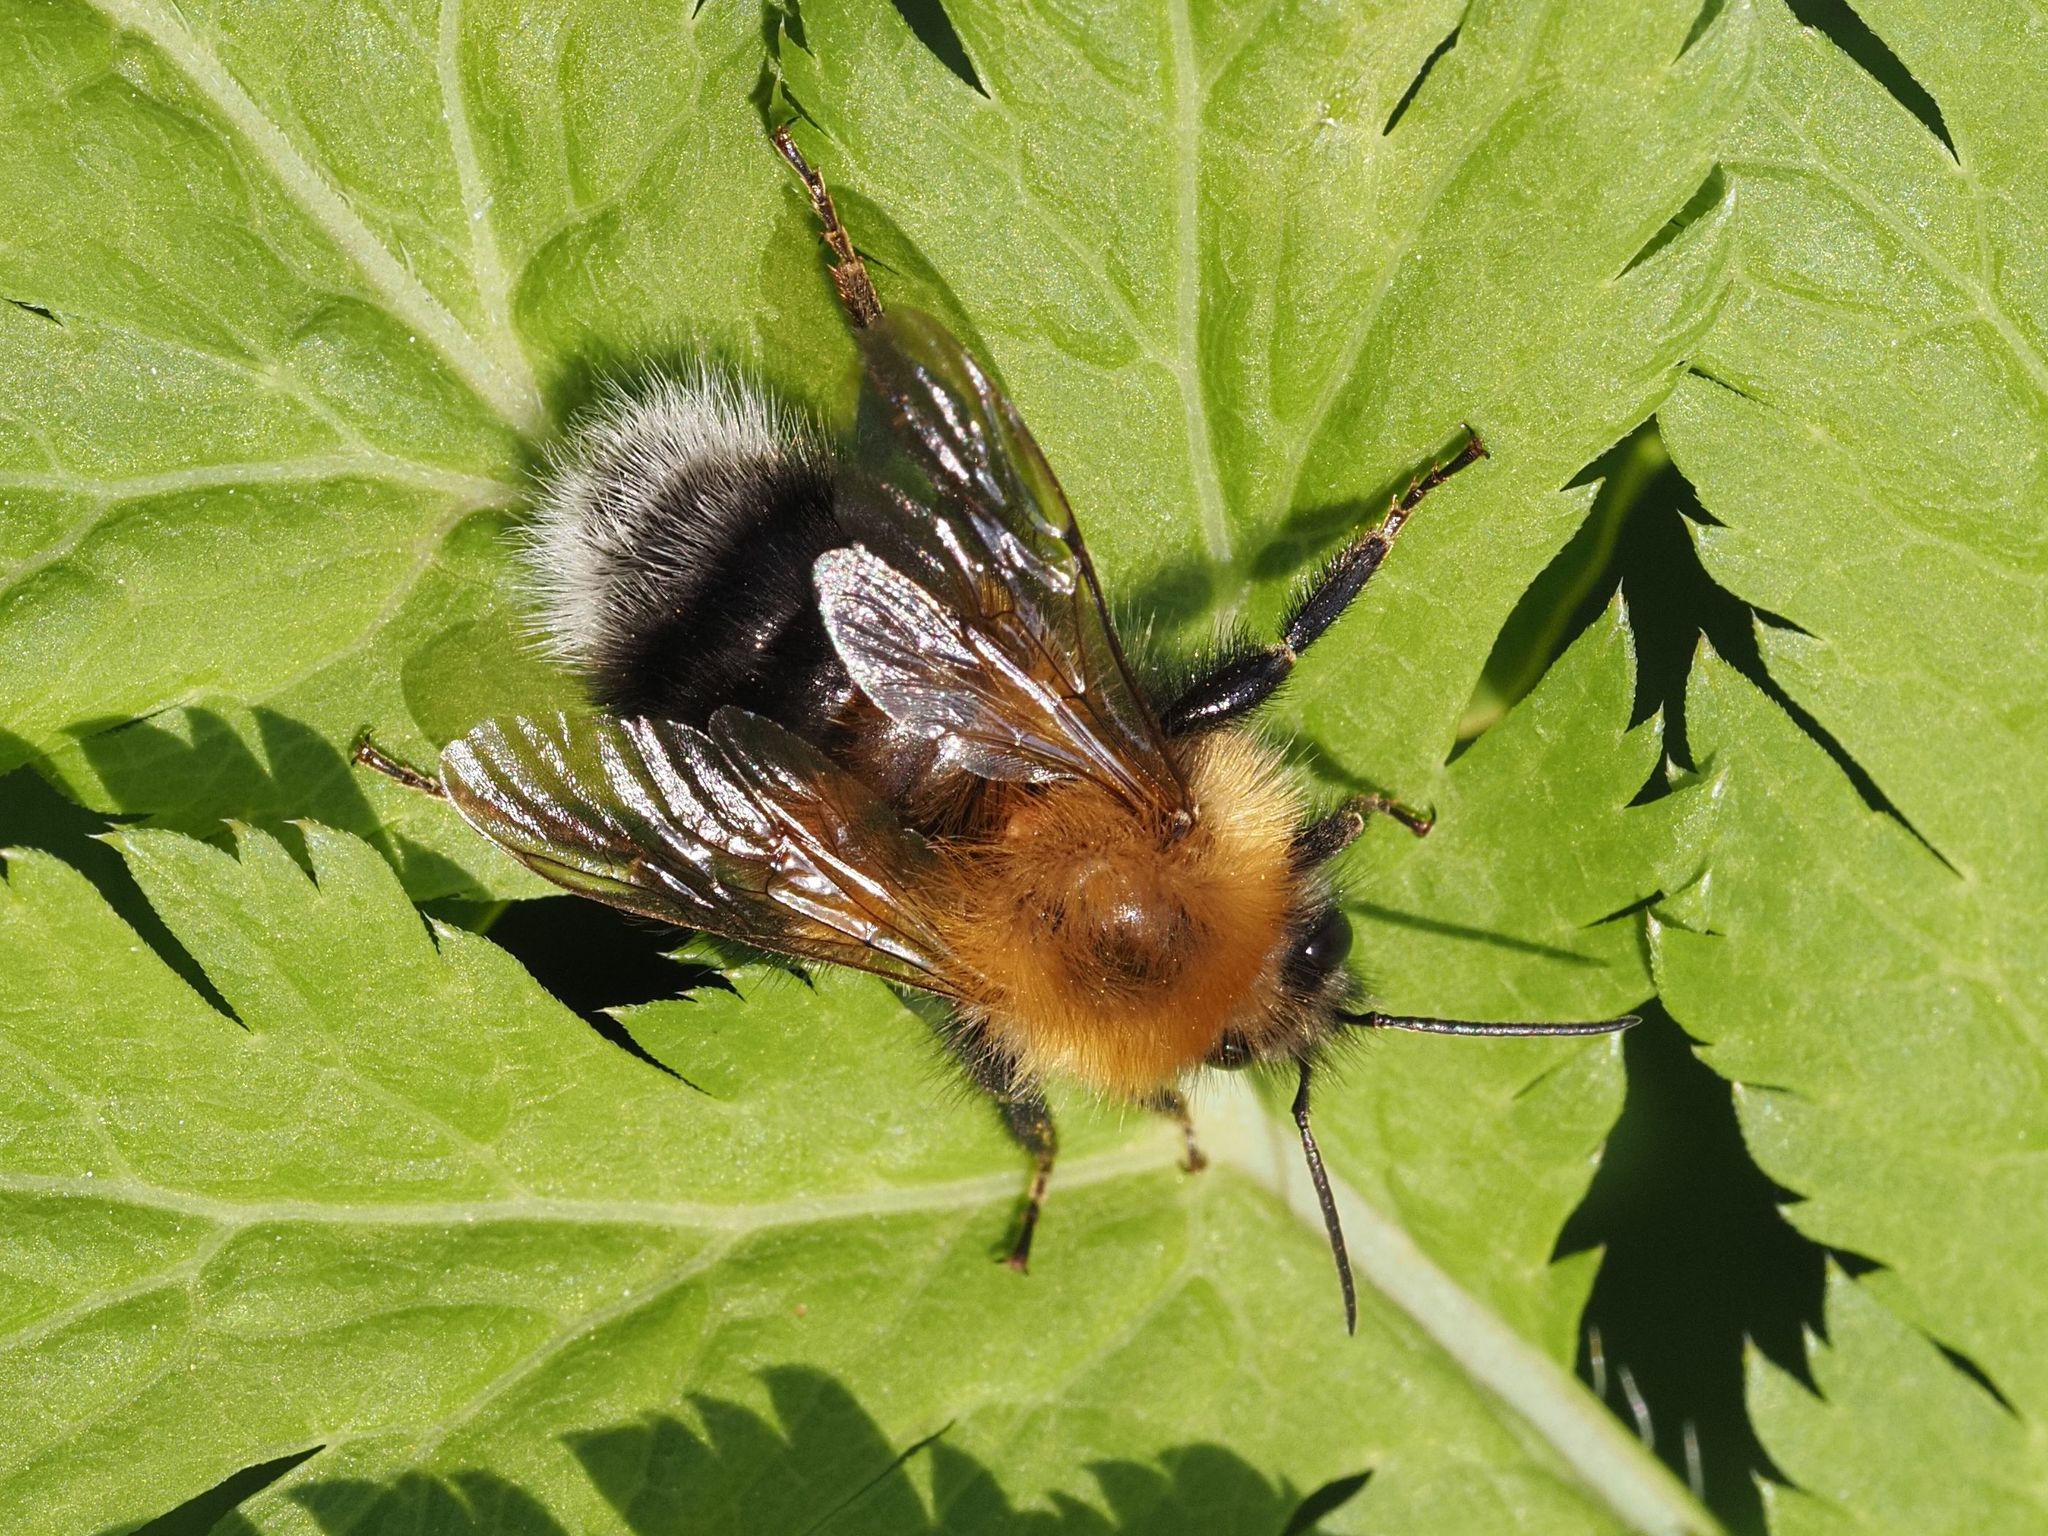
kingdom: Animalia
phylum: Arthropoda
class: Insecta
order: Hymenoptera
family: Apidae
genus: Bombus
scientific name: Bombus hypnorum
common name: New garden bumblebee
